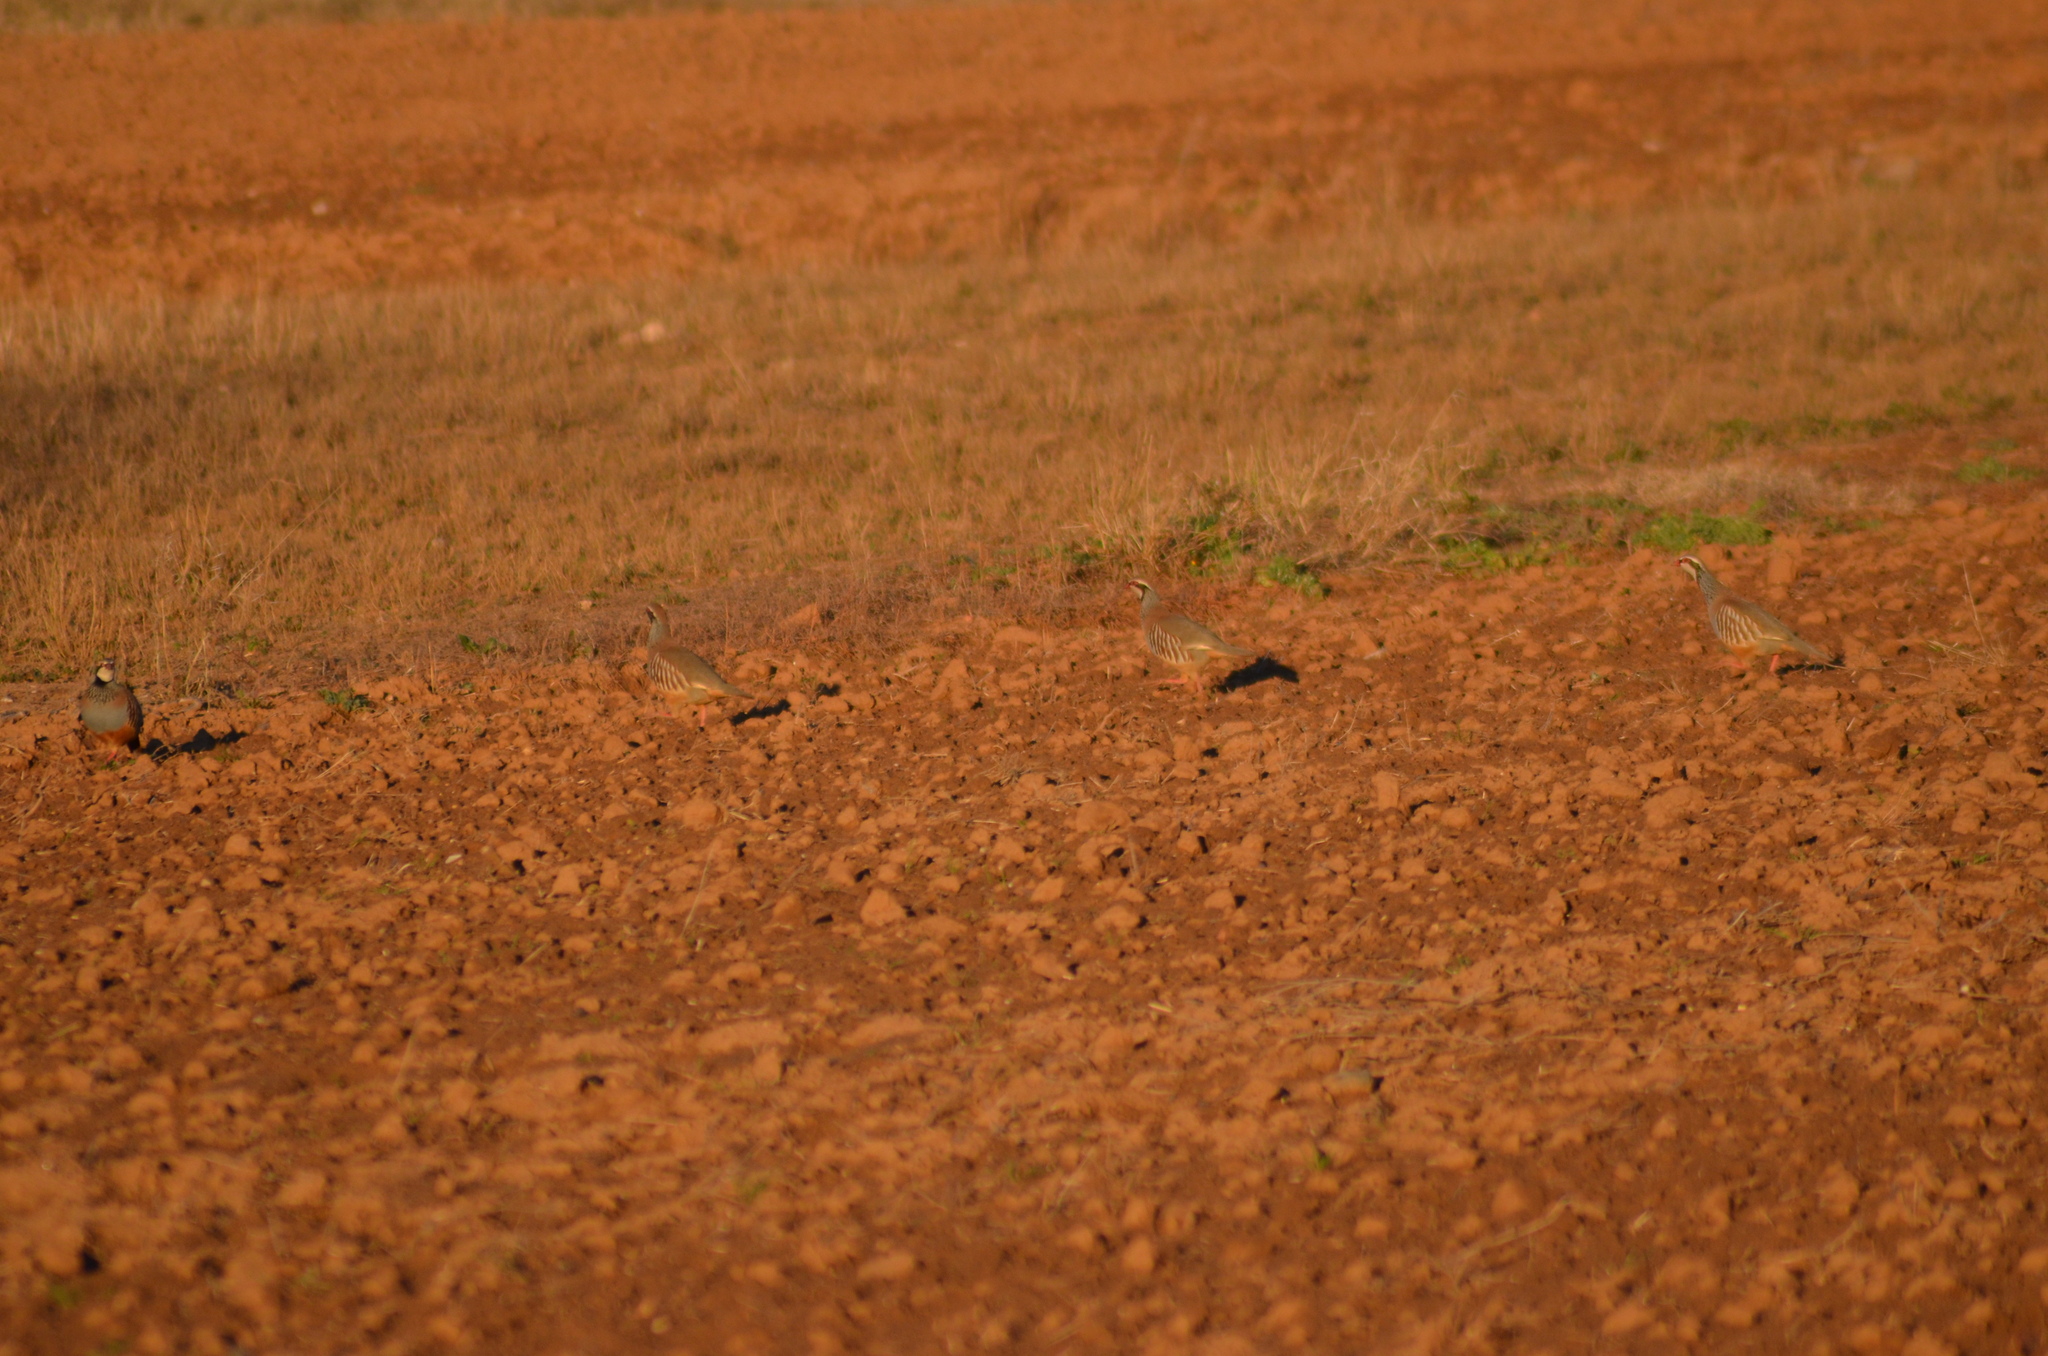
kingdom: Animalia
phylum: Chordata
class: Aves
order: Galliformes
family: Phasianidae
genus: Alectoris
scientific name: Alectoris rufa
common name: Red-legged partridge
